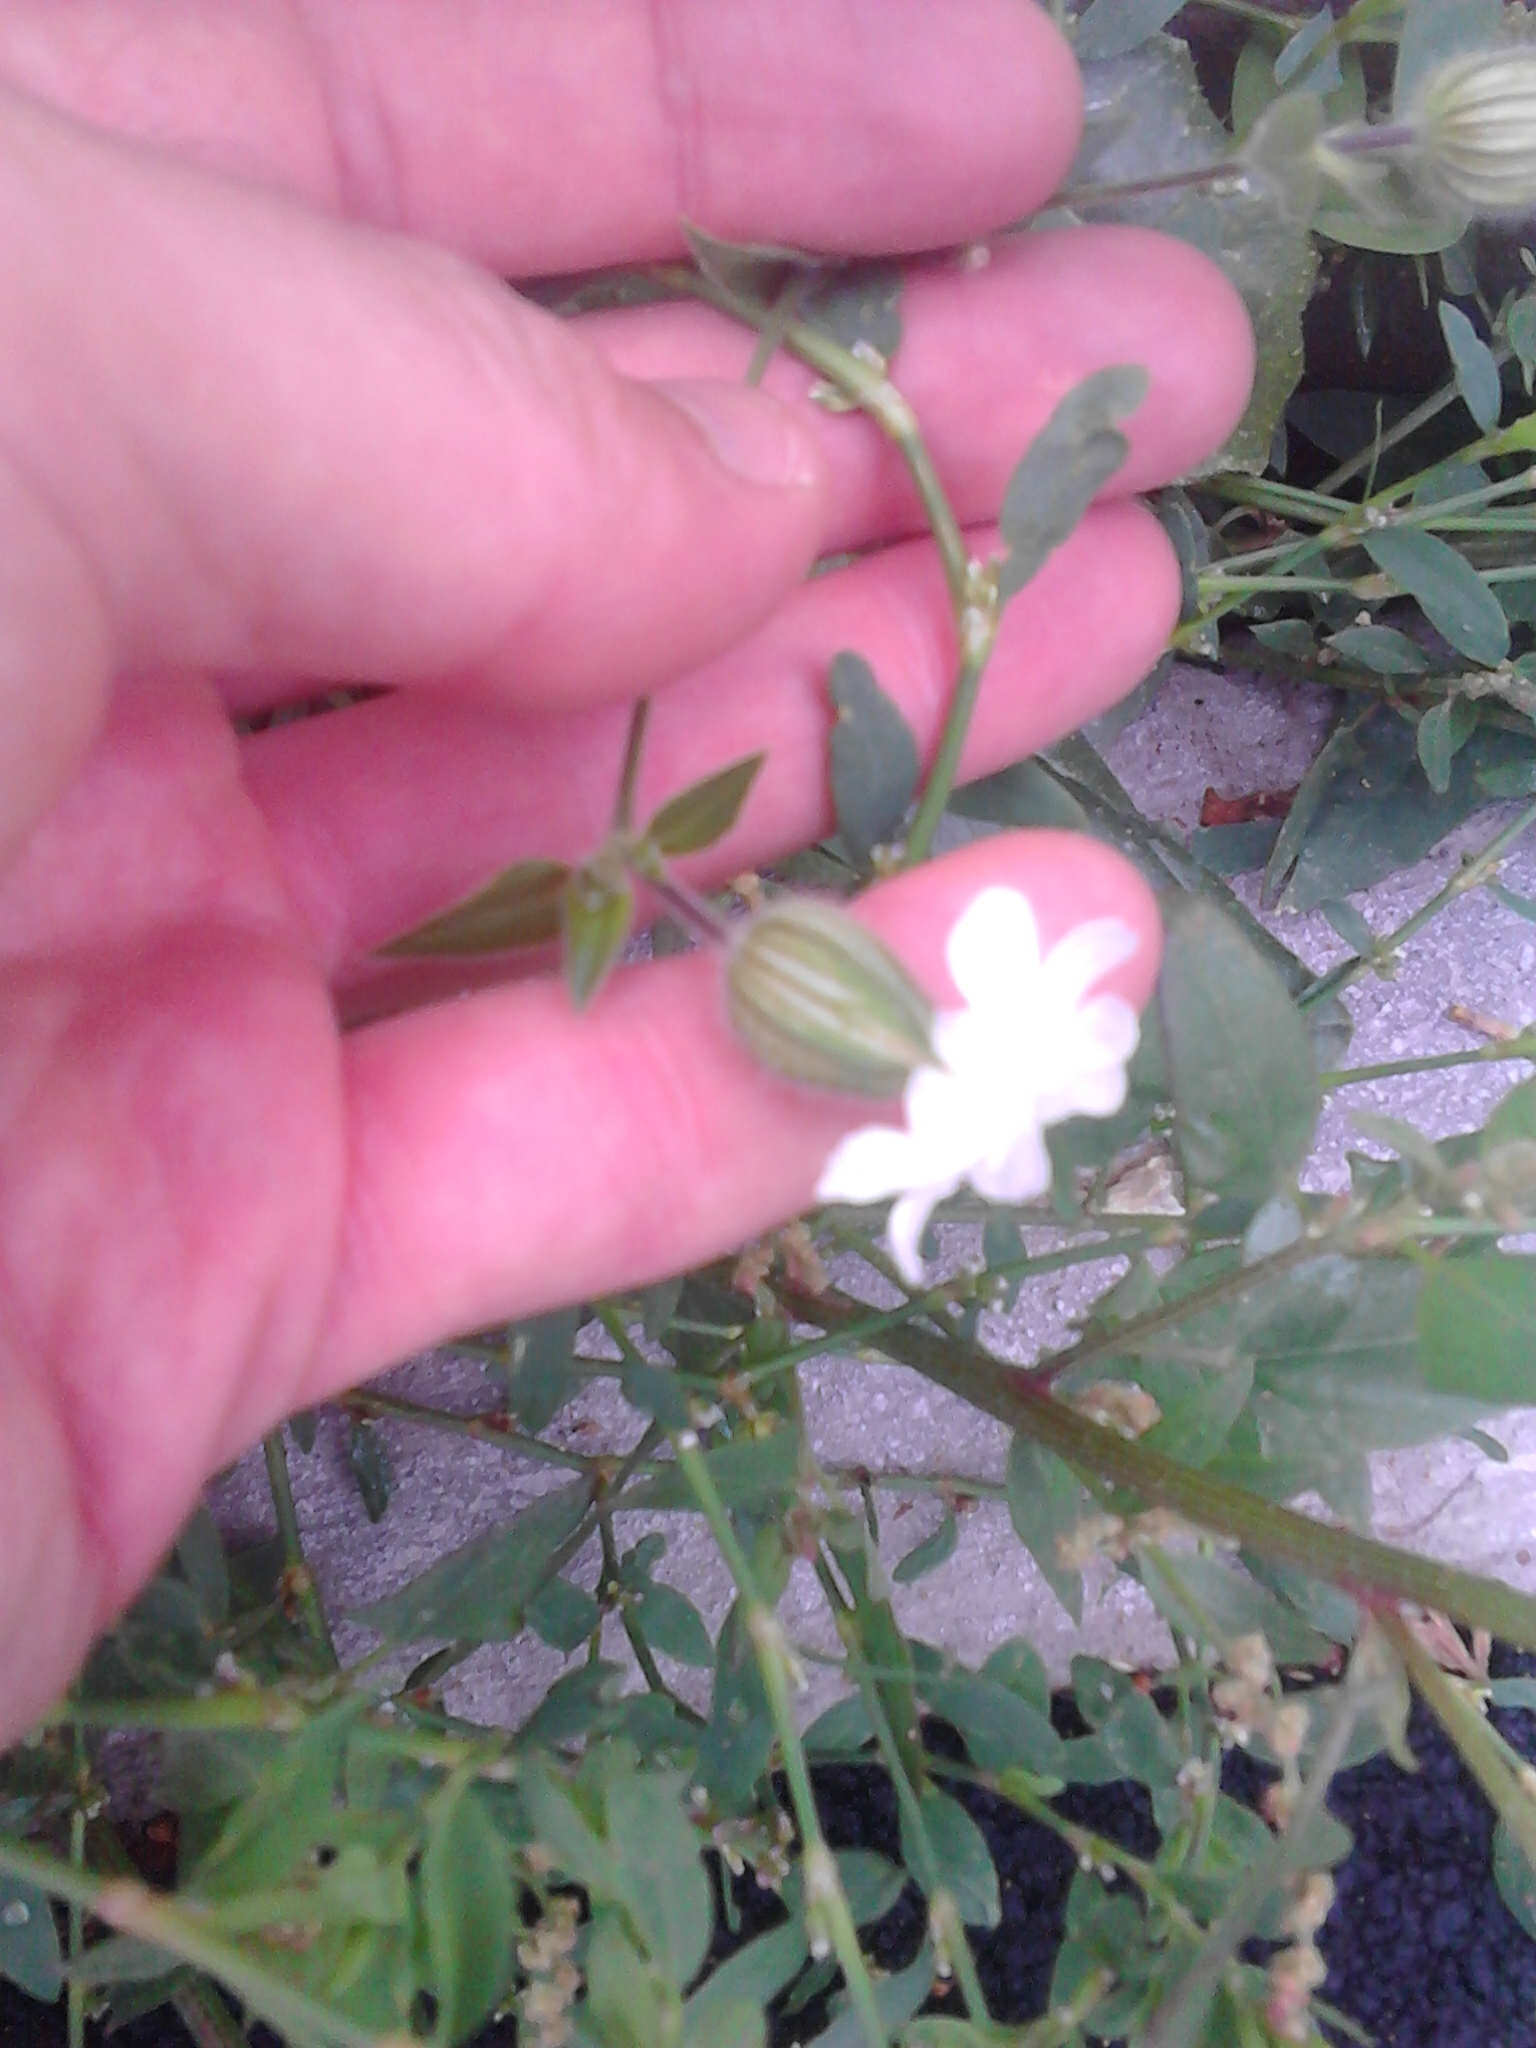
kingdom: Plantae
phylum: Tracheophyta
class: Magnoliopsida
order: Caryophyllales
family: Caryophyllaceae
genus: Silene
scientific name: Silene latifolia
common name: White campion
